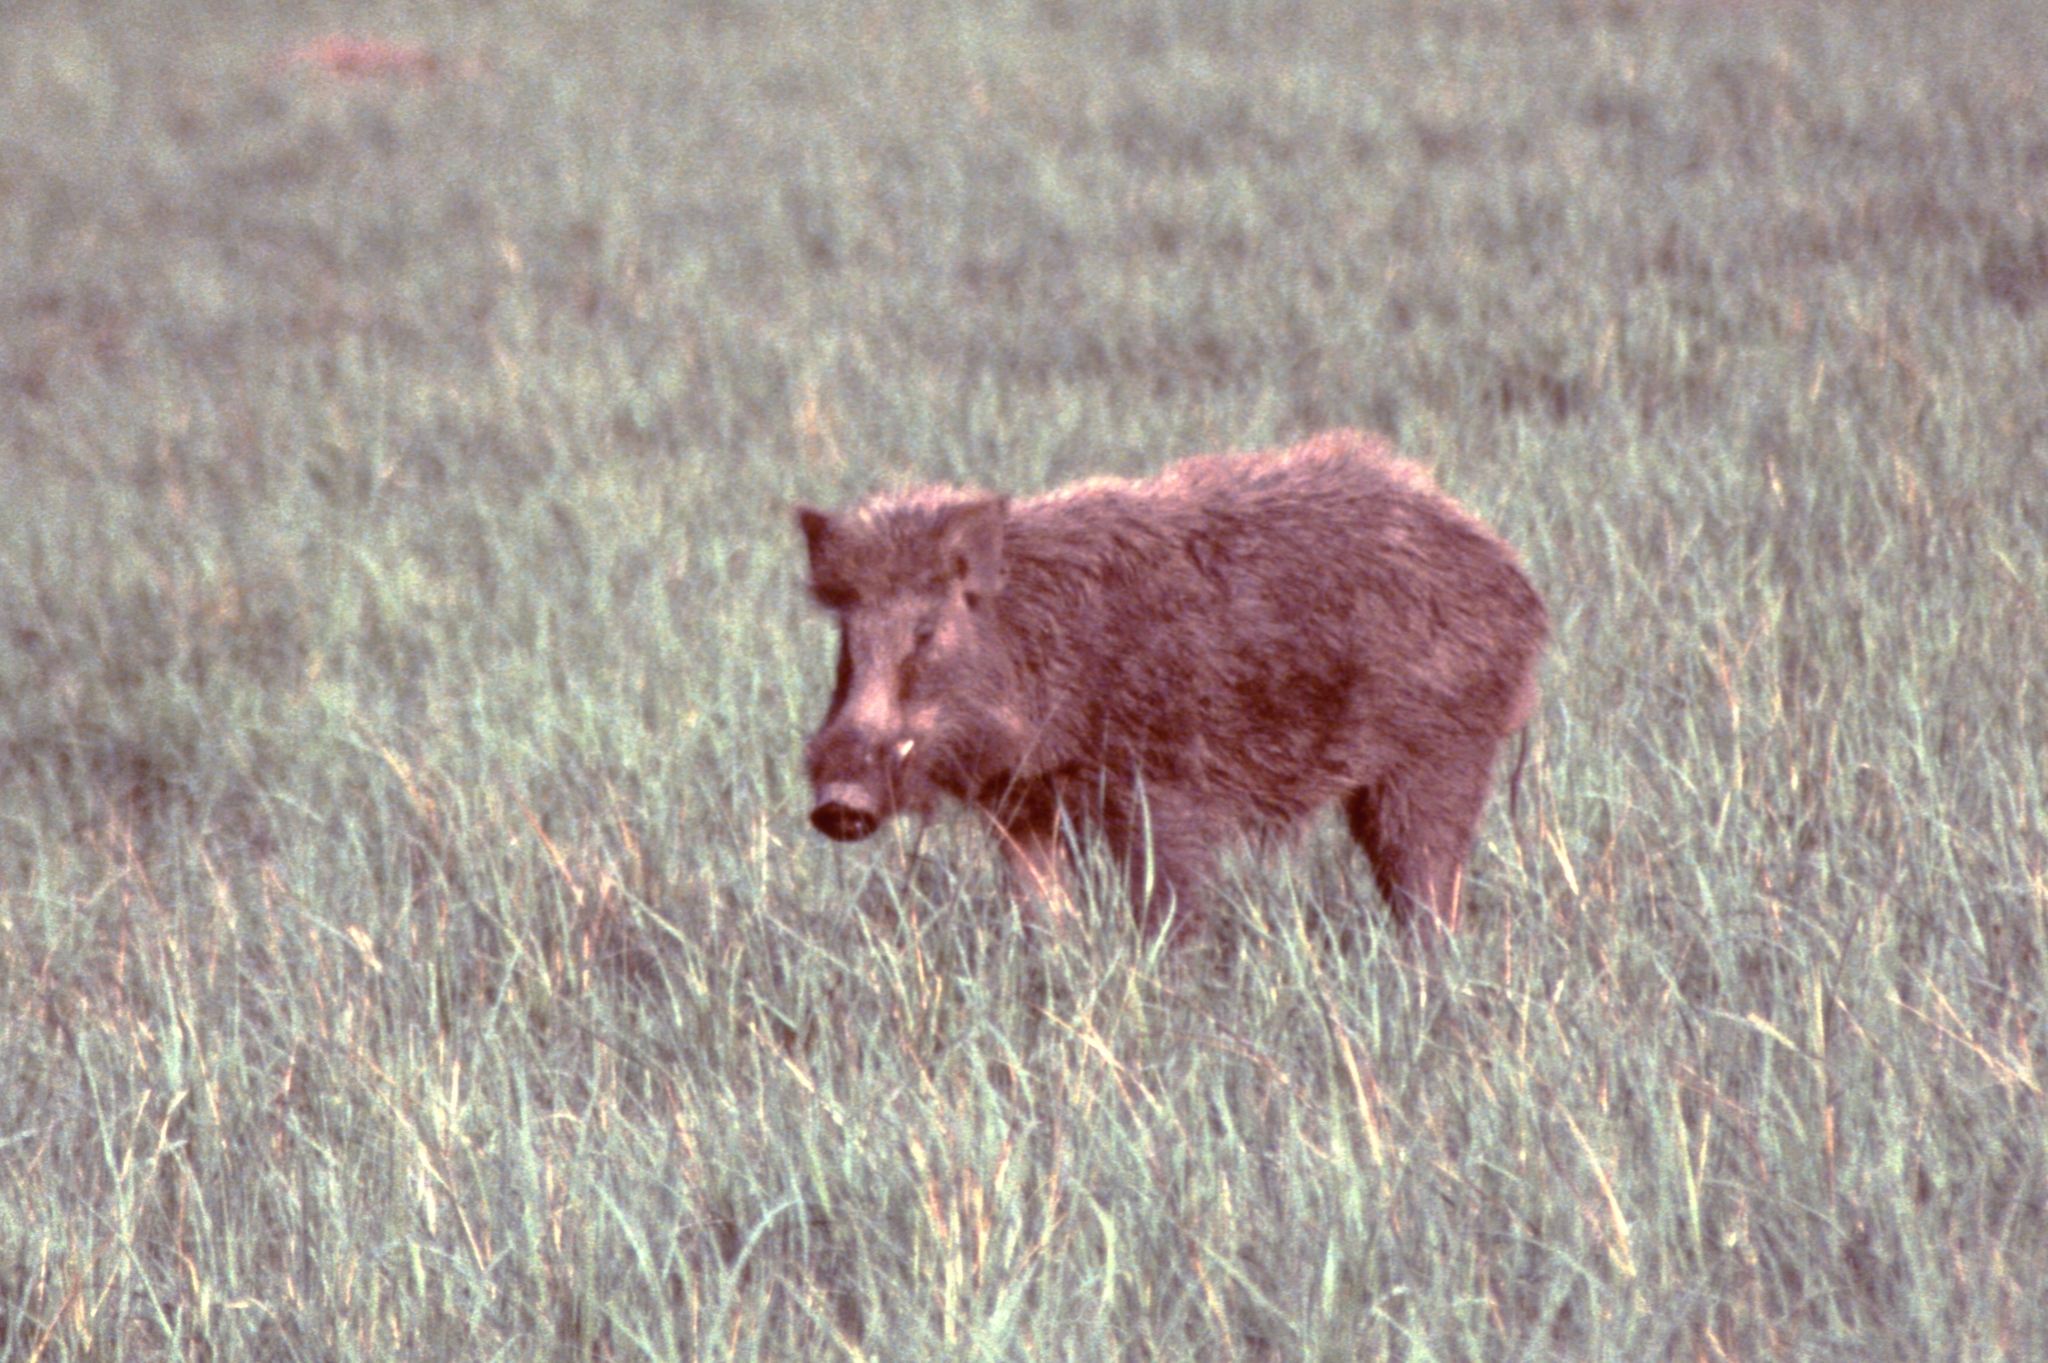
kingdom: Animalia
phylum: Chordata
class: Mammalia
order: Artiodactyla
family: Suidae
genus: Sus
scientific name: Sus scrofa
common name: Wild boar
